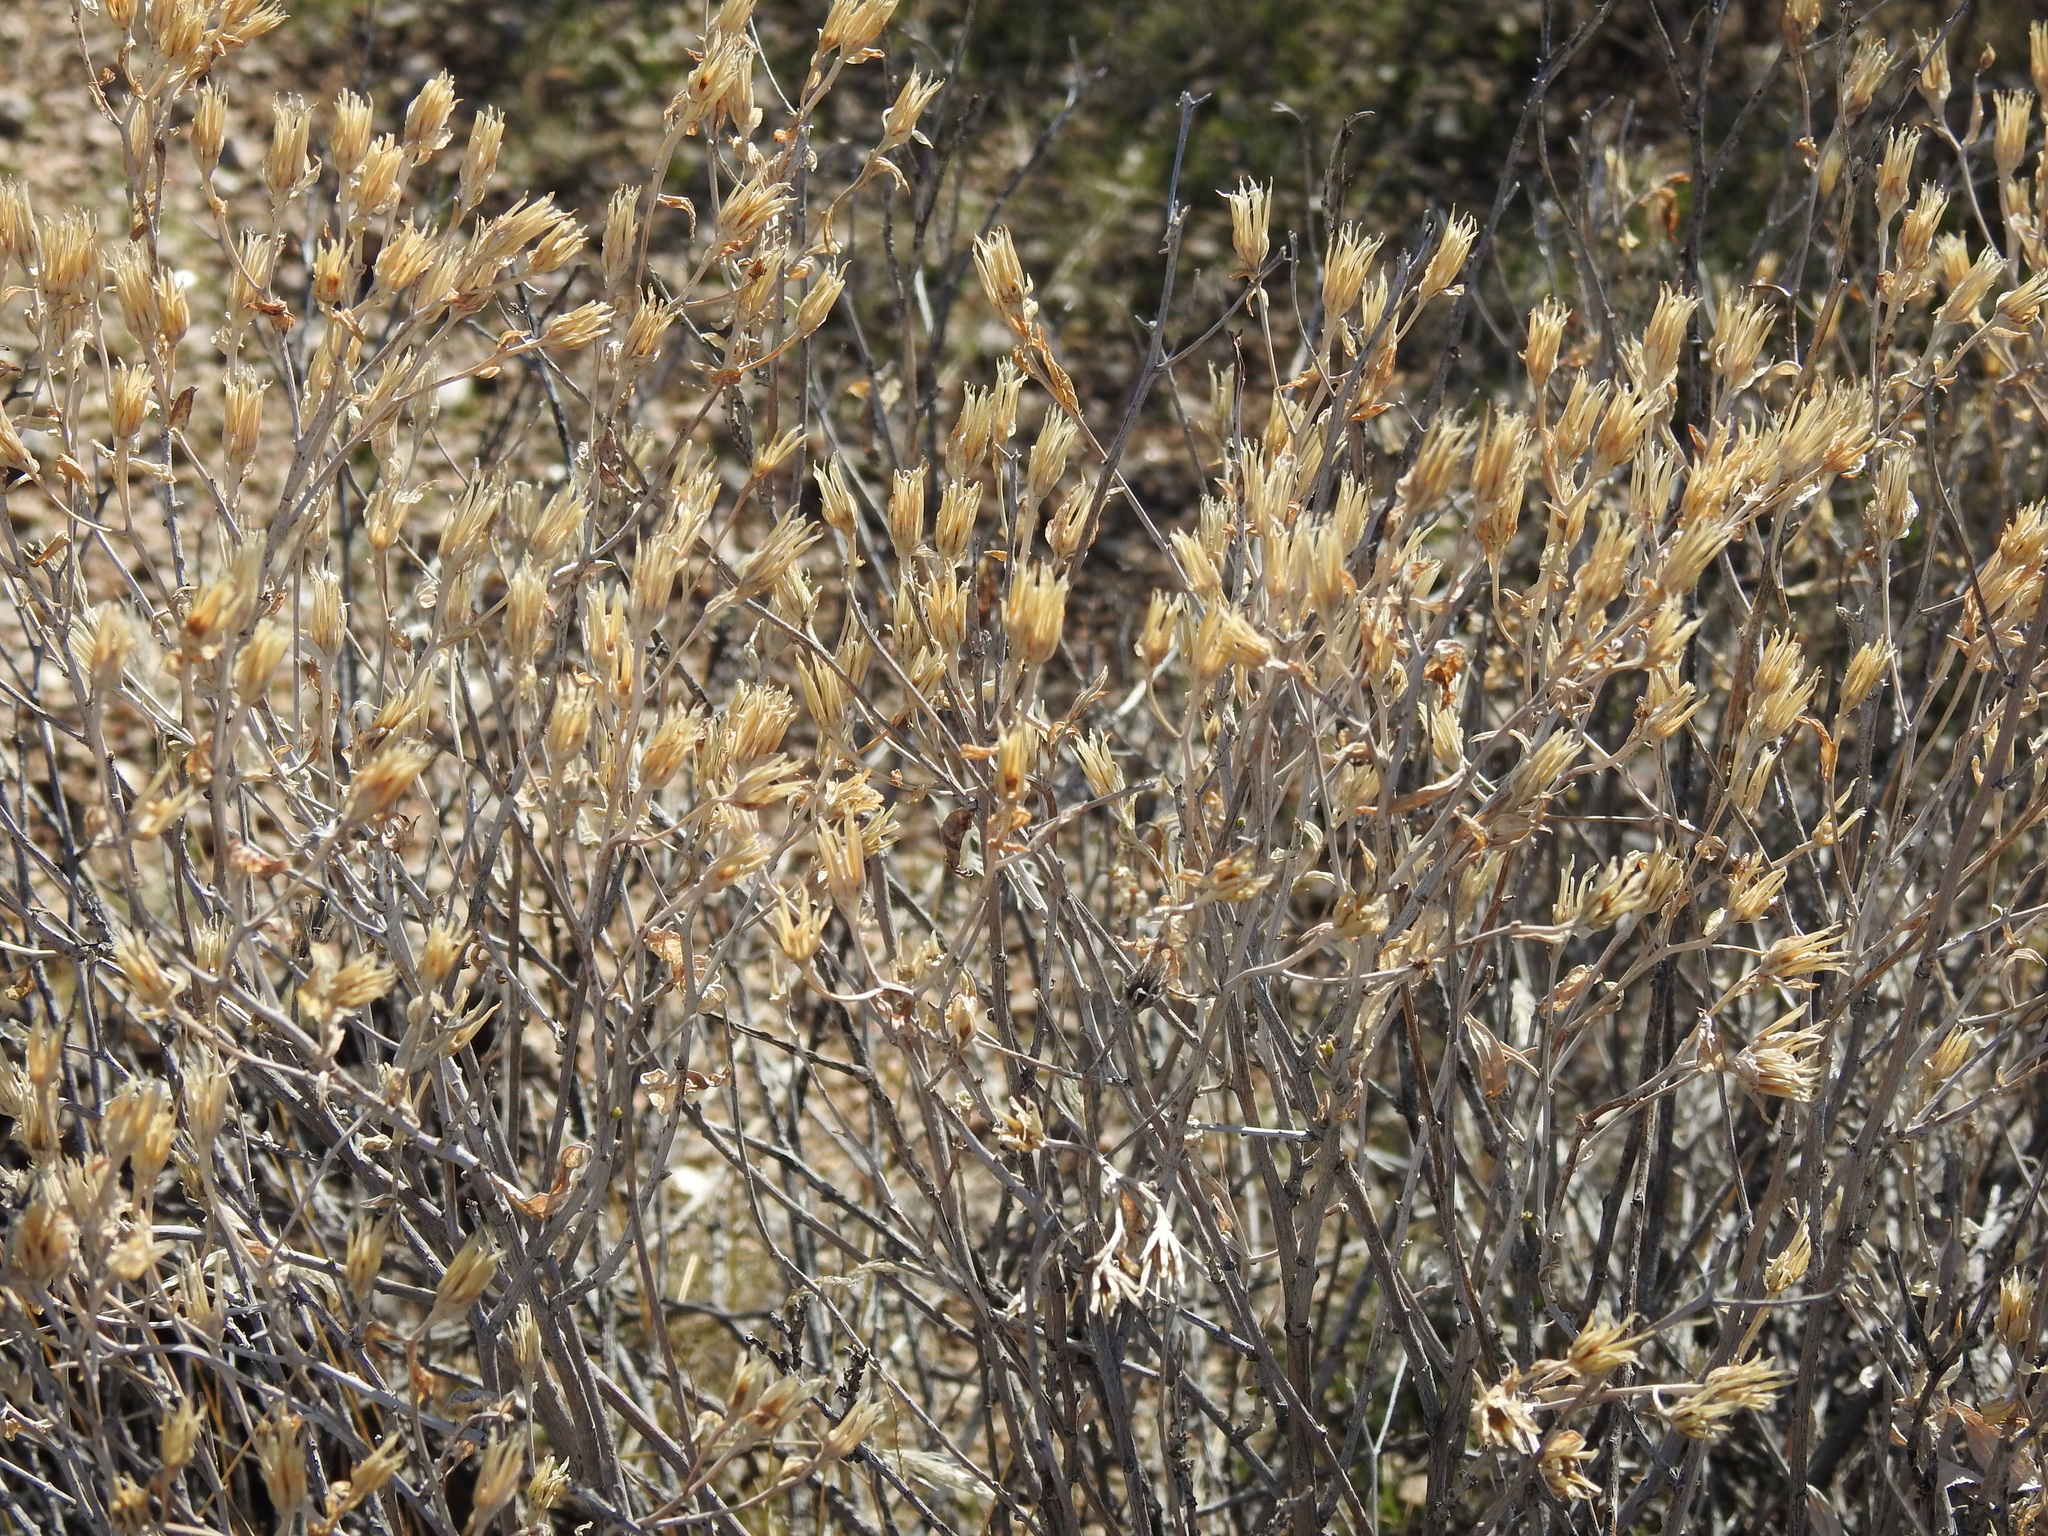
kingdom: Plantae
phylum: Tracheophyta
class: Magnoliopsida
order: Asterales
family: Asteraceae
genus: Trixis
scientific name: Trixis californica
